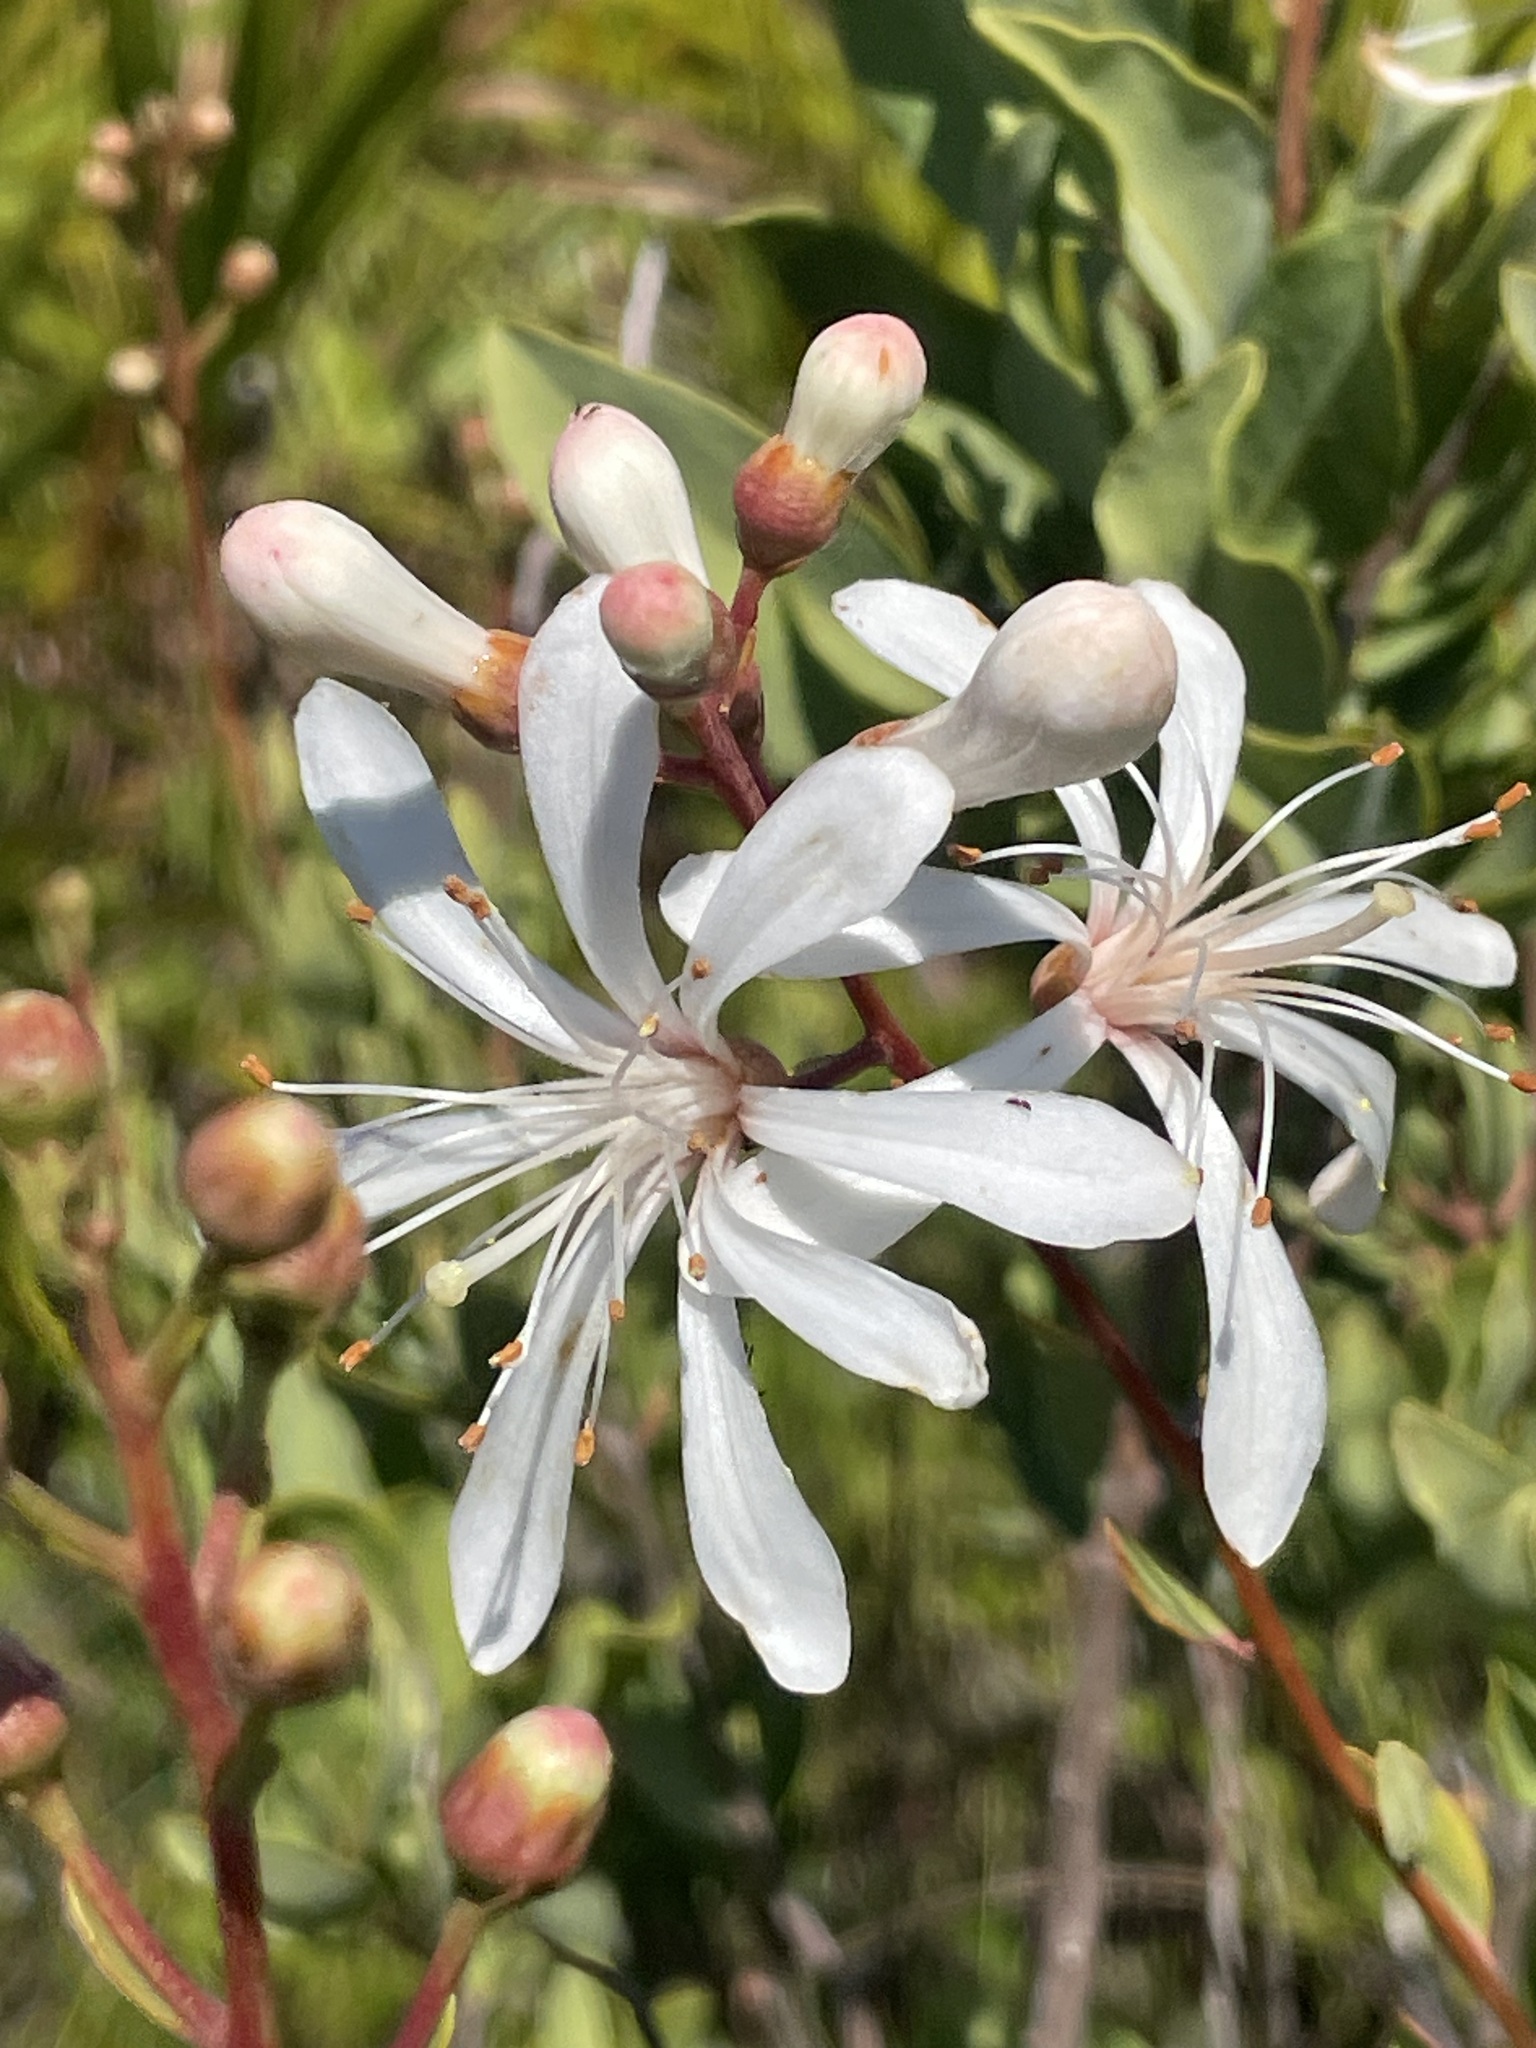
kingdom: Plantae
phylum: Tracheophyta
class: Magnoliopsida
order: Ericales
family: Ericaceae
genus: Bejaria
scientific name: Bejaria racemosa
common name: Tarflower
